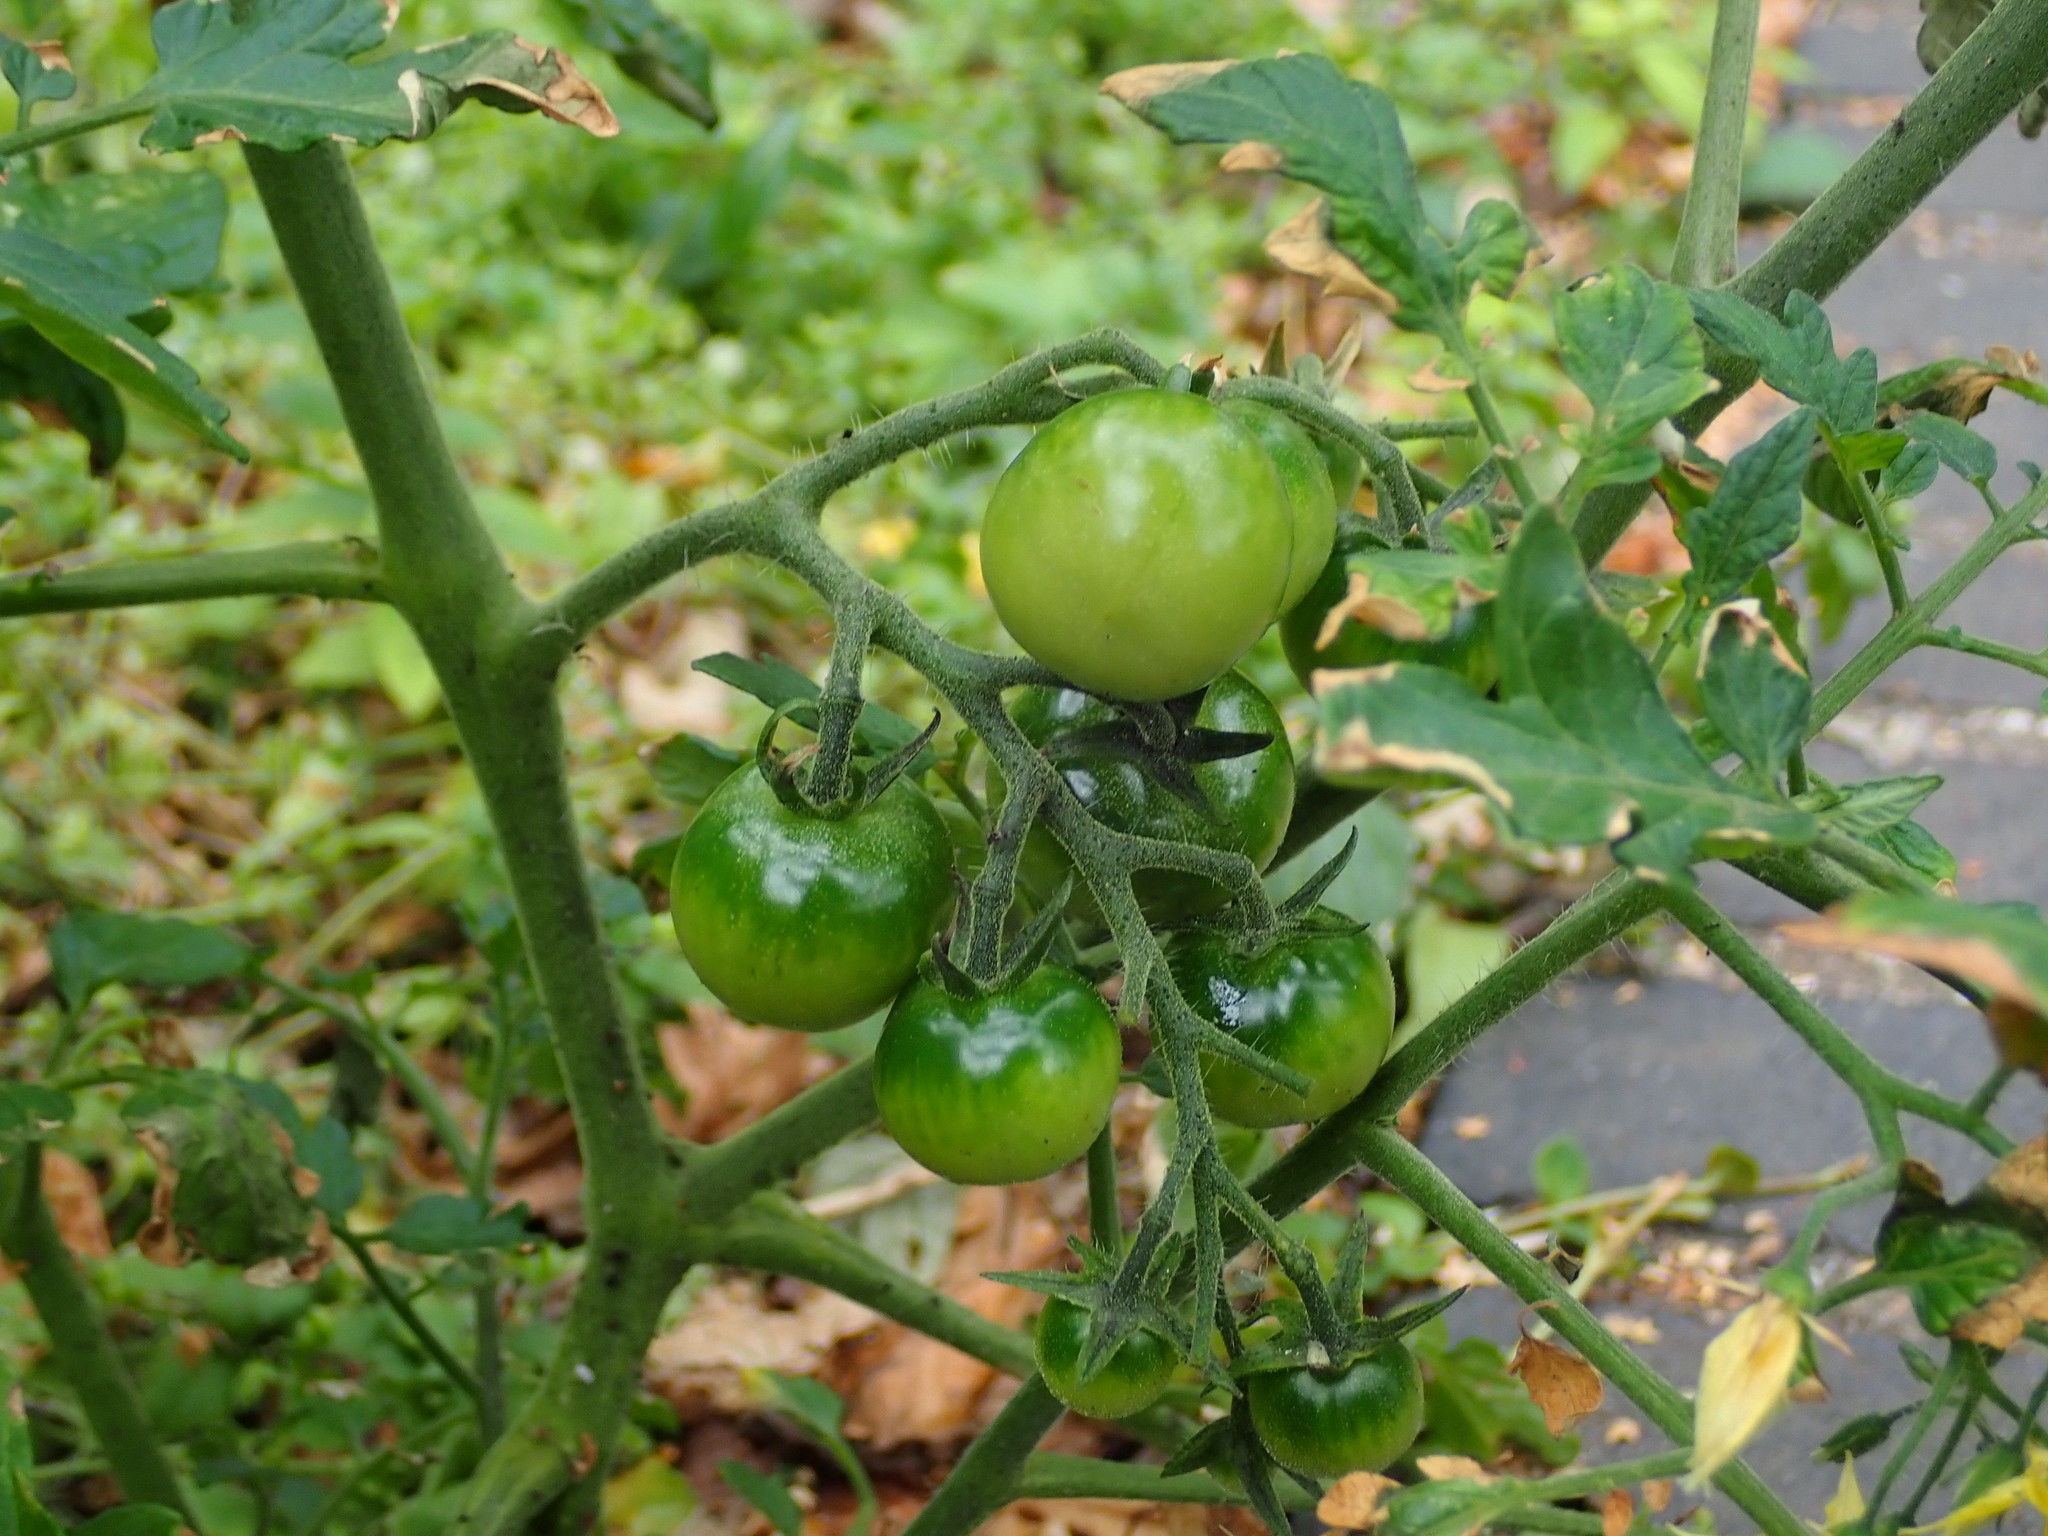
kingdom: Plantae
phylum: Tracheophyta
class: Magnoliopsida
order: Solanales
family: Solanaceae
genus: Solanum
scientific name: Solanum lycopersicum
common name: Garden tomato
